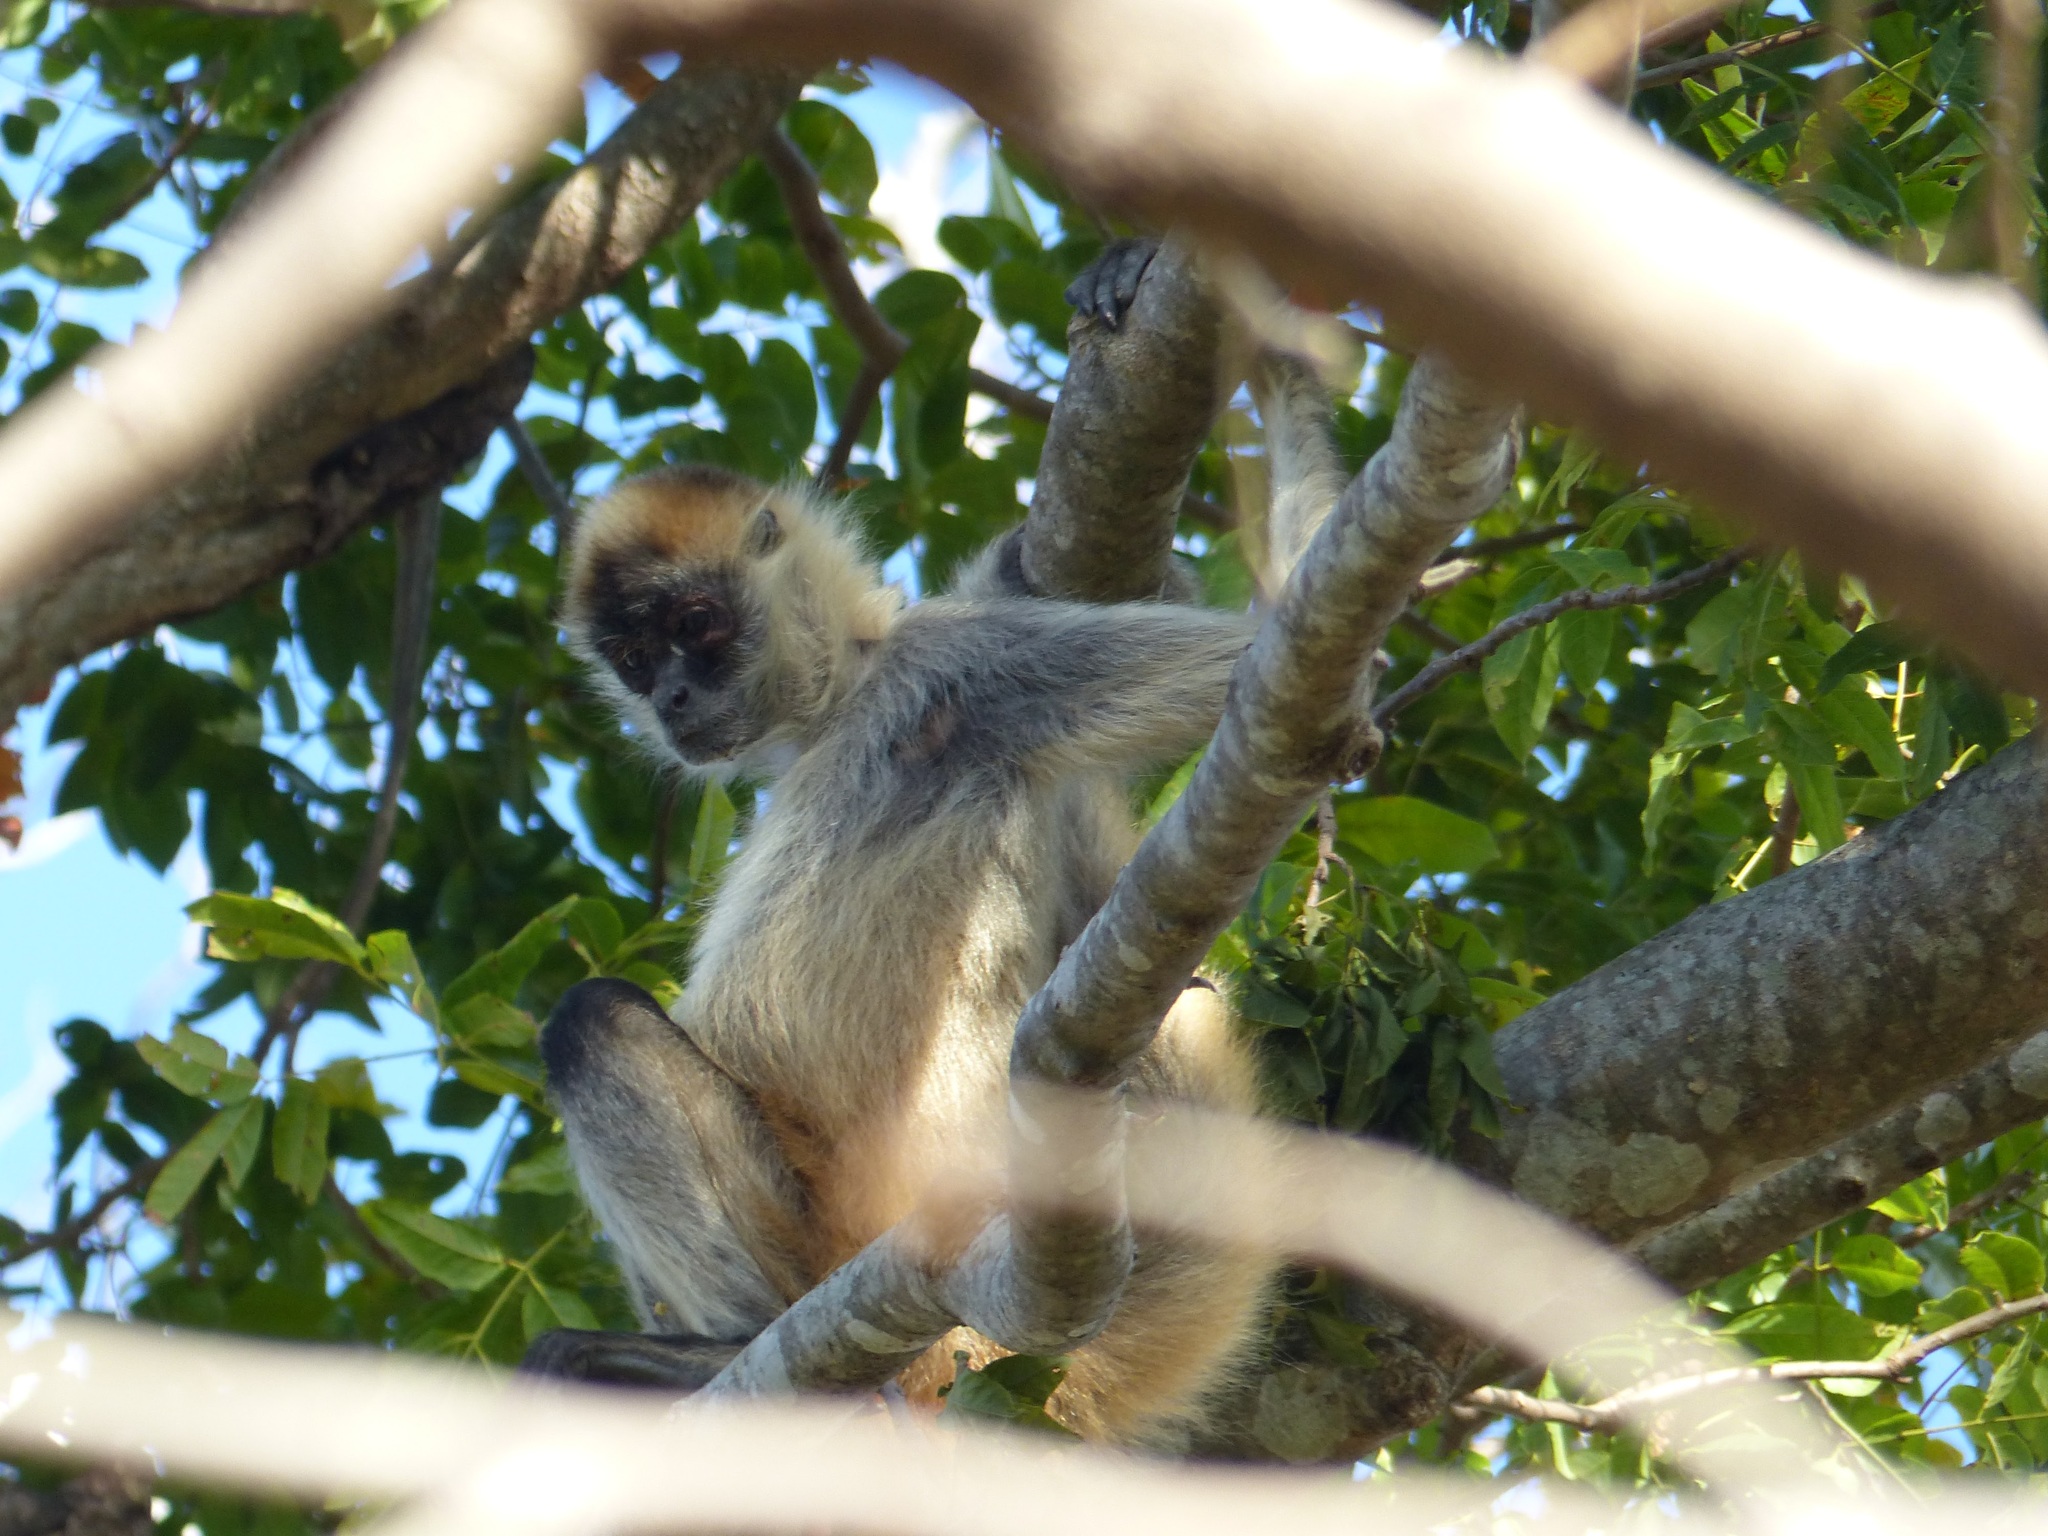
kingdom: Animalia
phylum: Chordata
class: Mammalia
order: Primates
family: Atelidae
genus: Ateles
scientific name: Ateles geoffroyi
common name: Black-handed spider monkey
